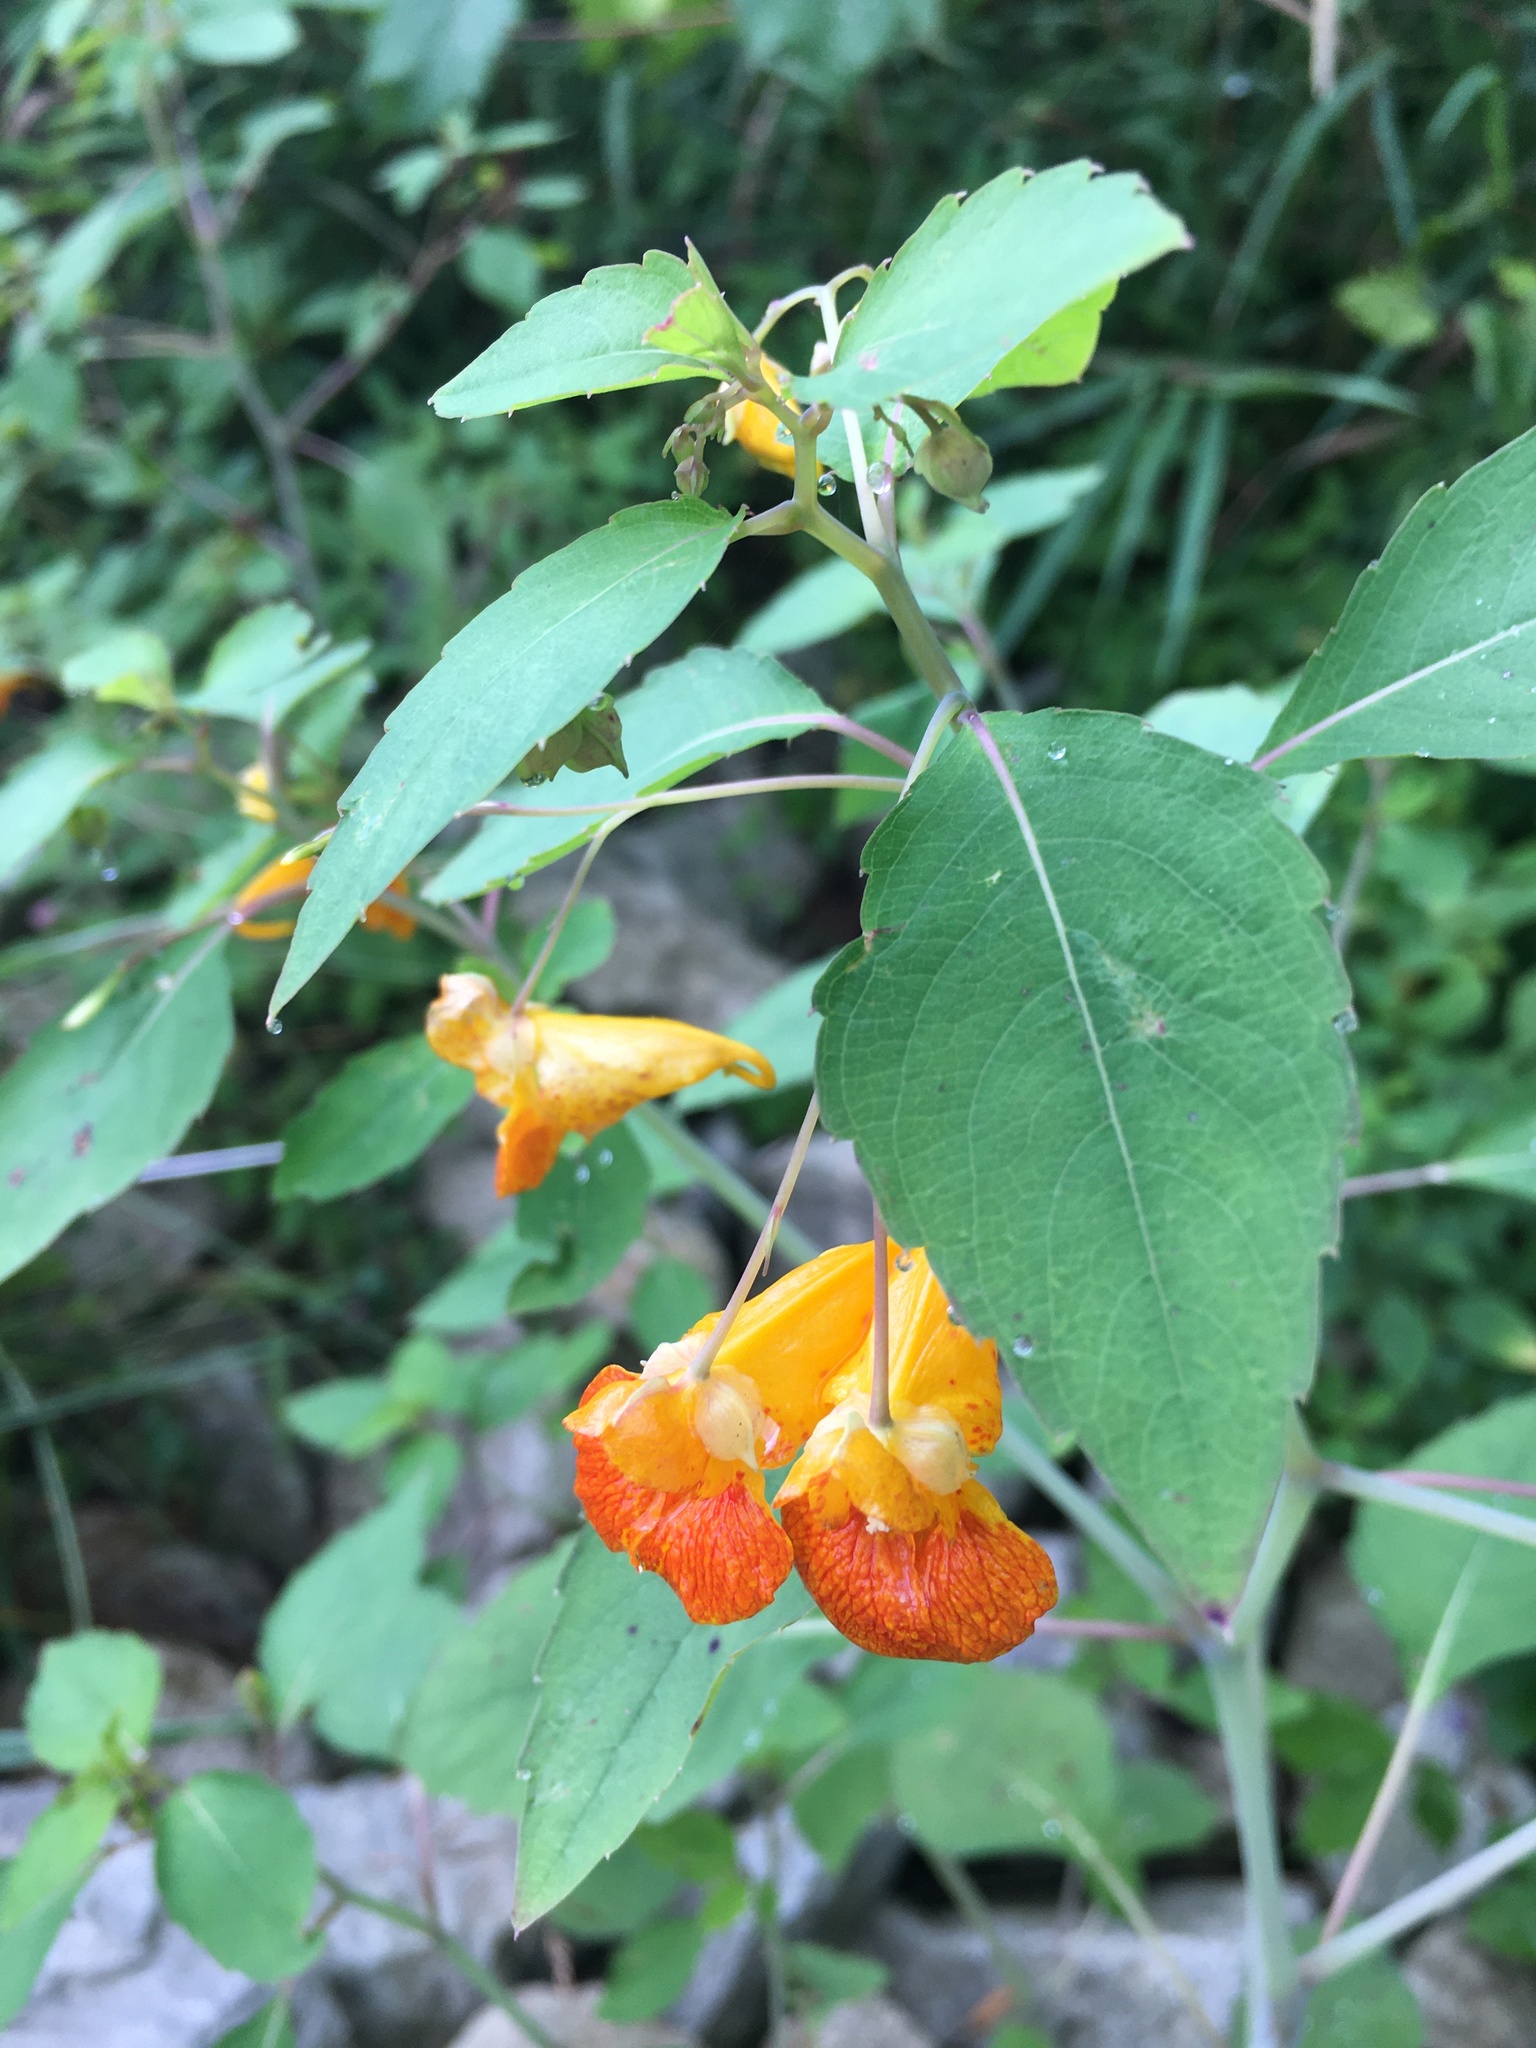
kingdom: Plantae
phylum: Tracheophyta
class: Magnoliopsida
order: Ericales
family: Balsaminaceae
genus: Impatiens
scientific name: Impatiens capensis
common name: Orange balsam
